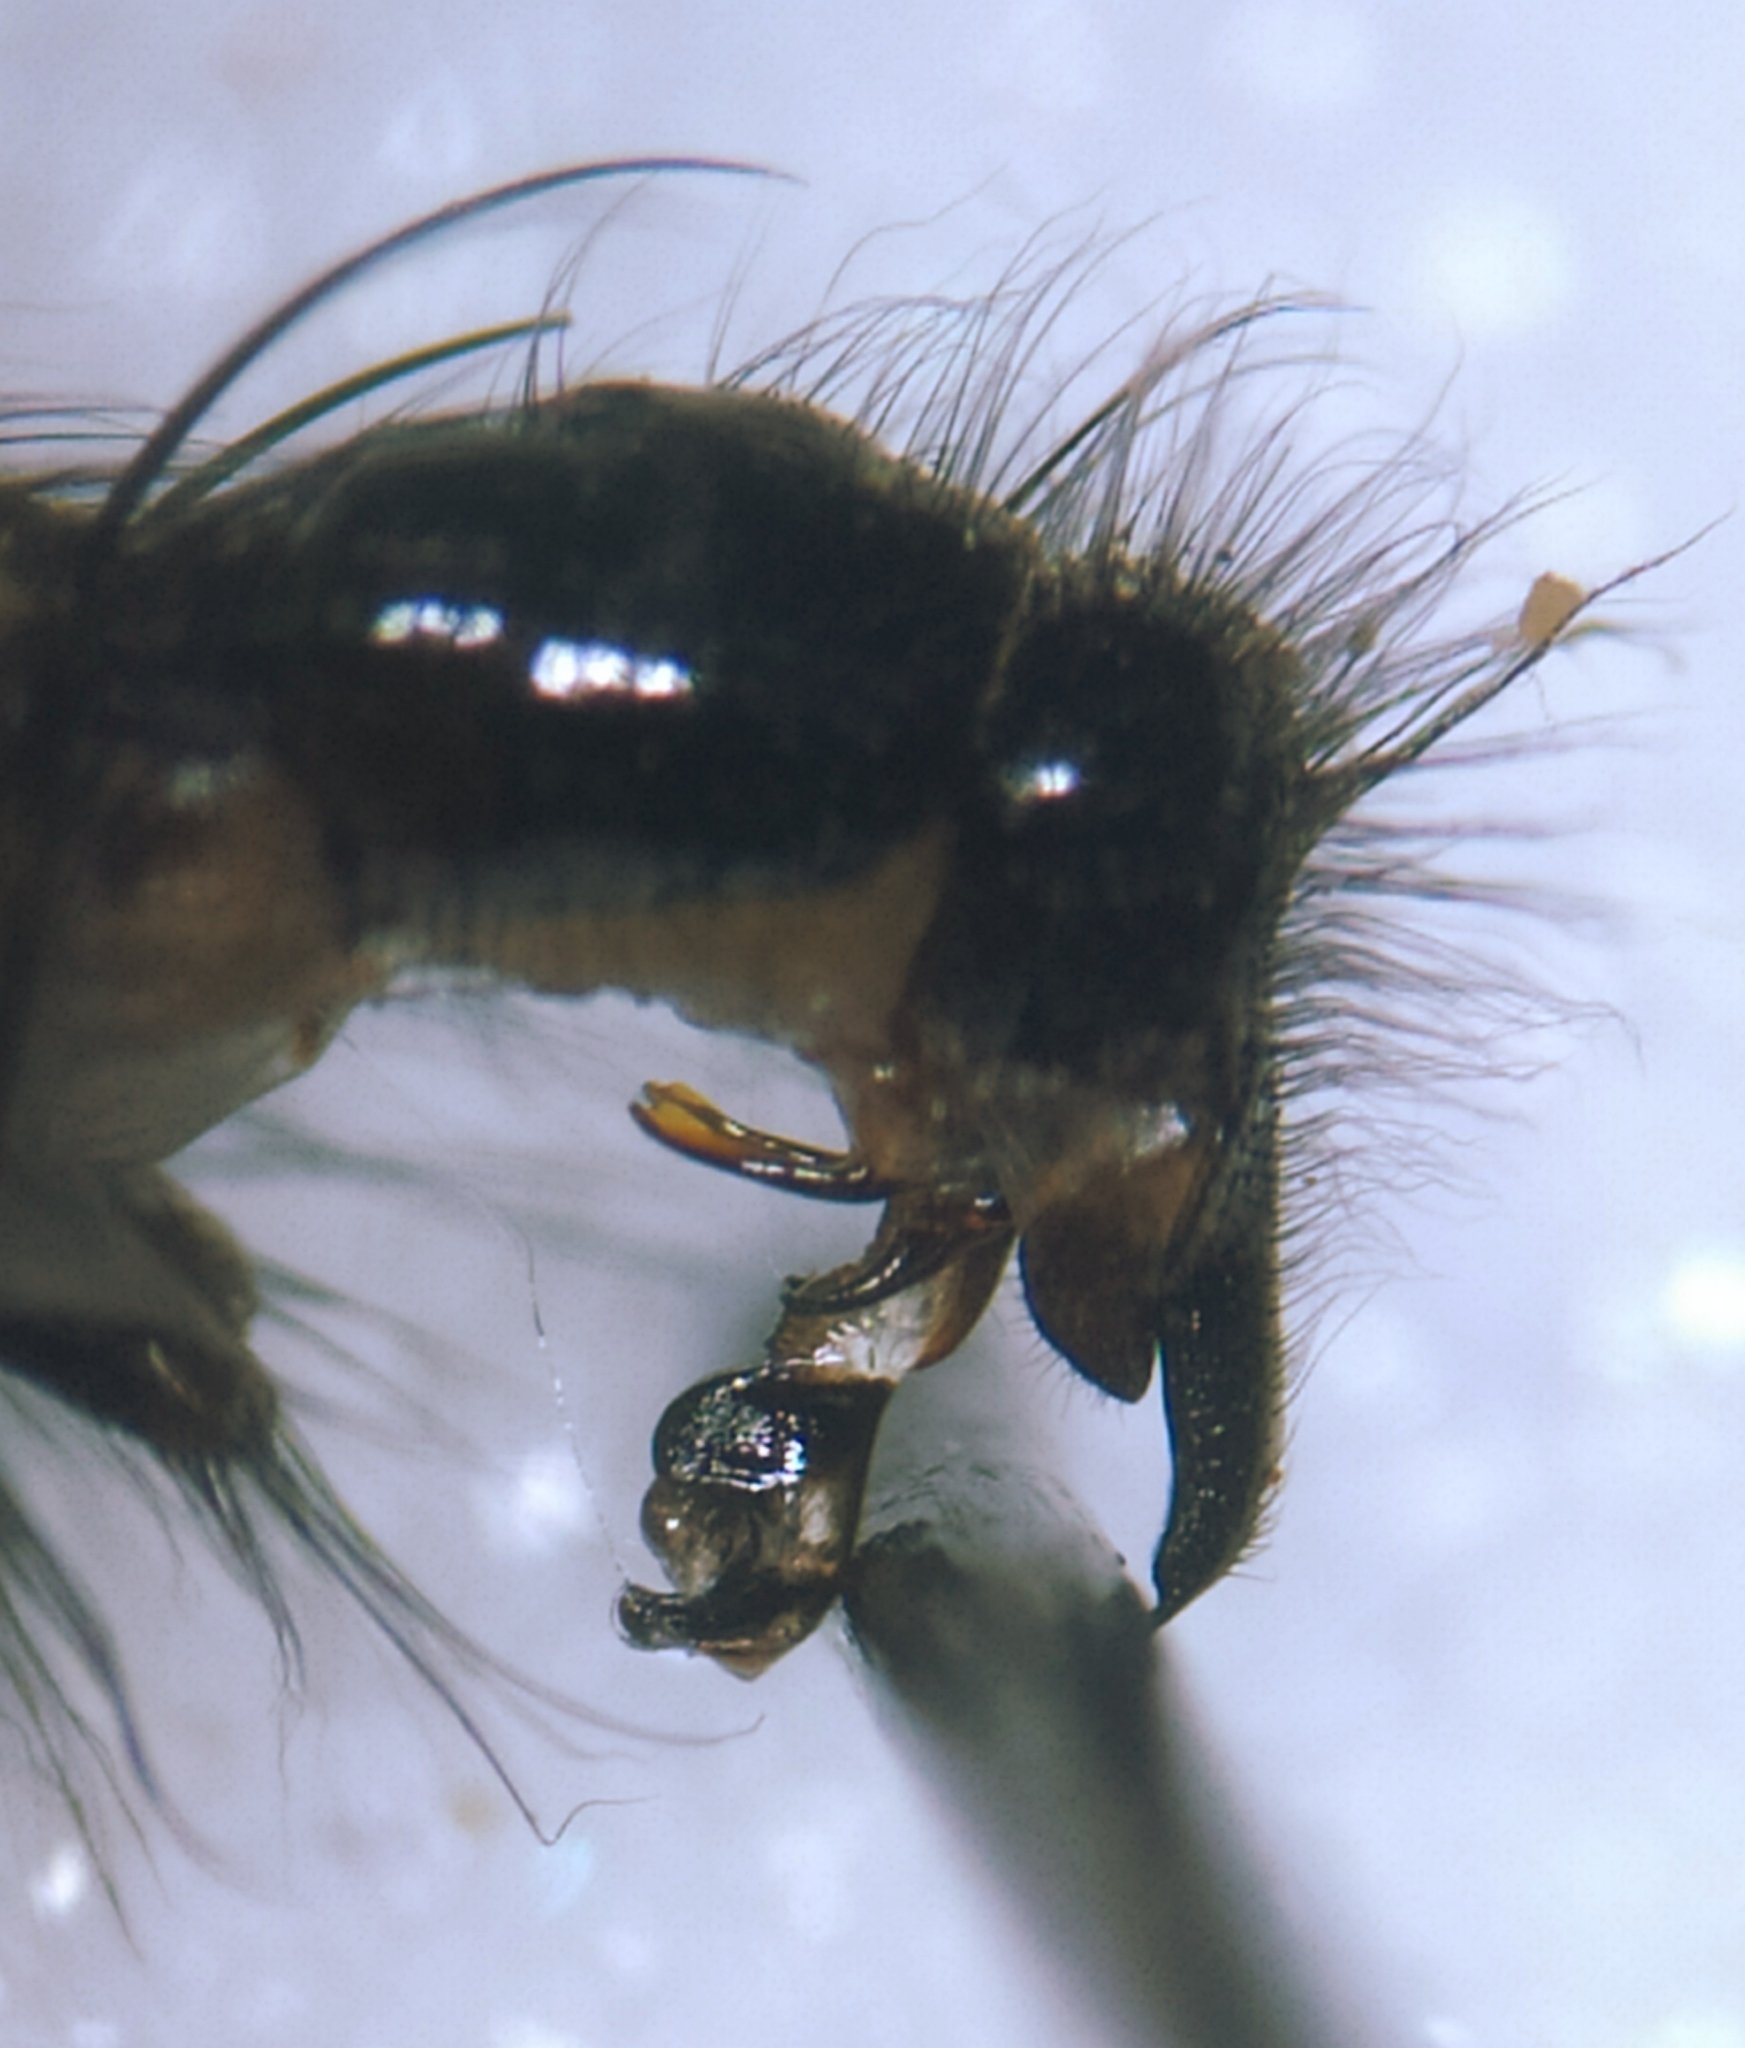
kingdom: Animalia
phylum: Arthropoda
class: Insecta
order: Diptera
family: Sarcophagidae
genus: Sarcophaga
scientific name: Sarcophaga variegata
